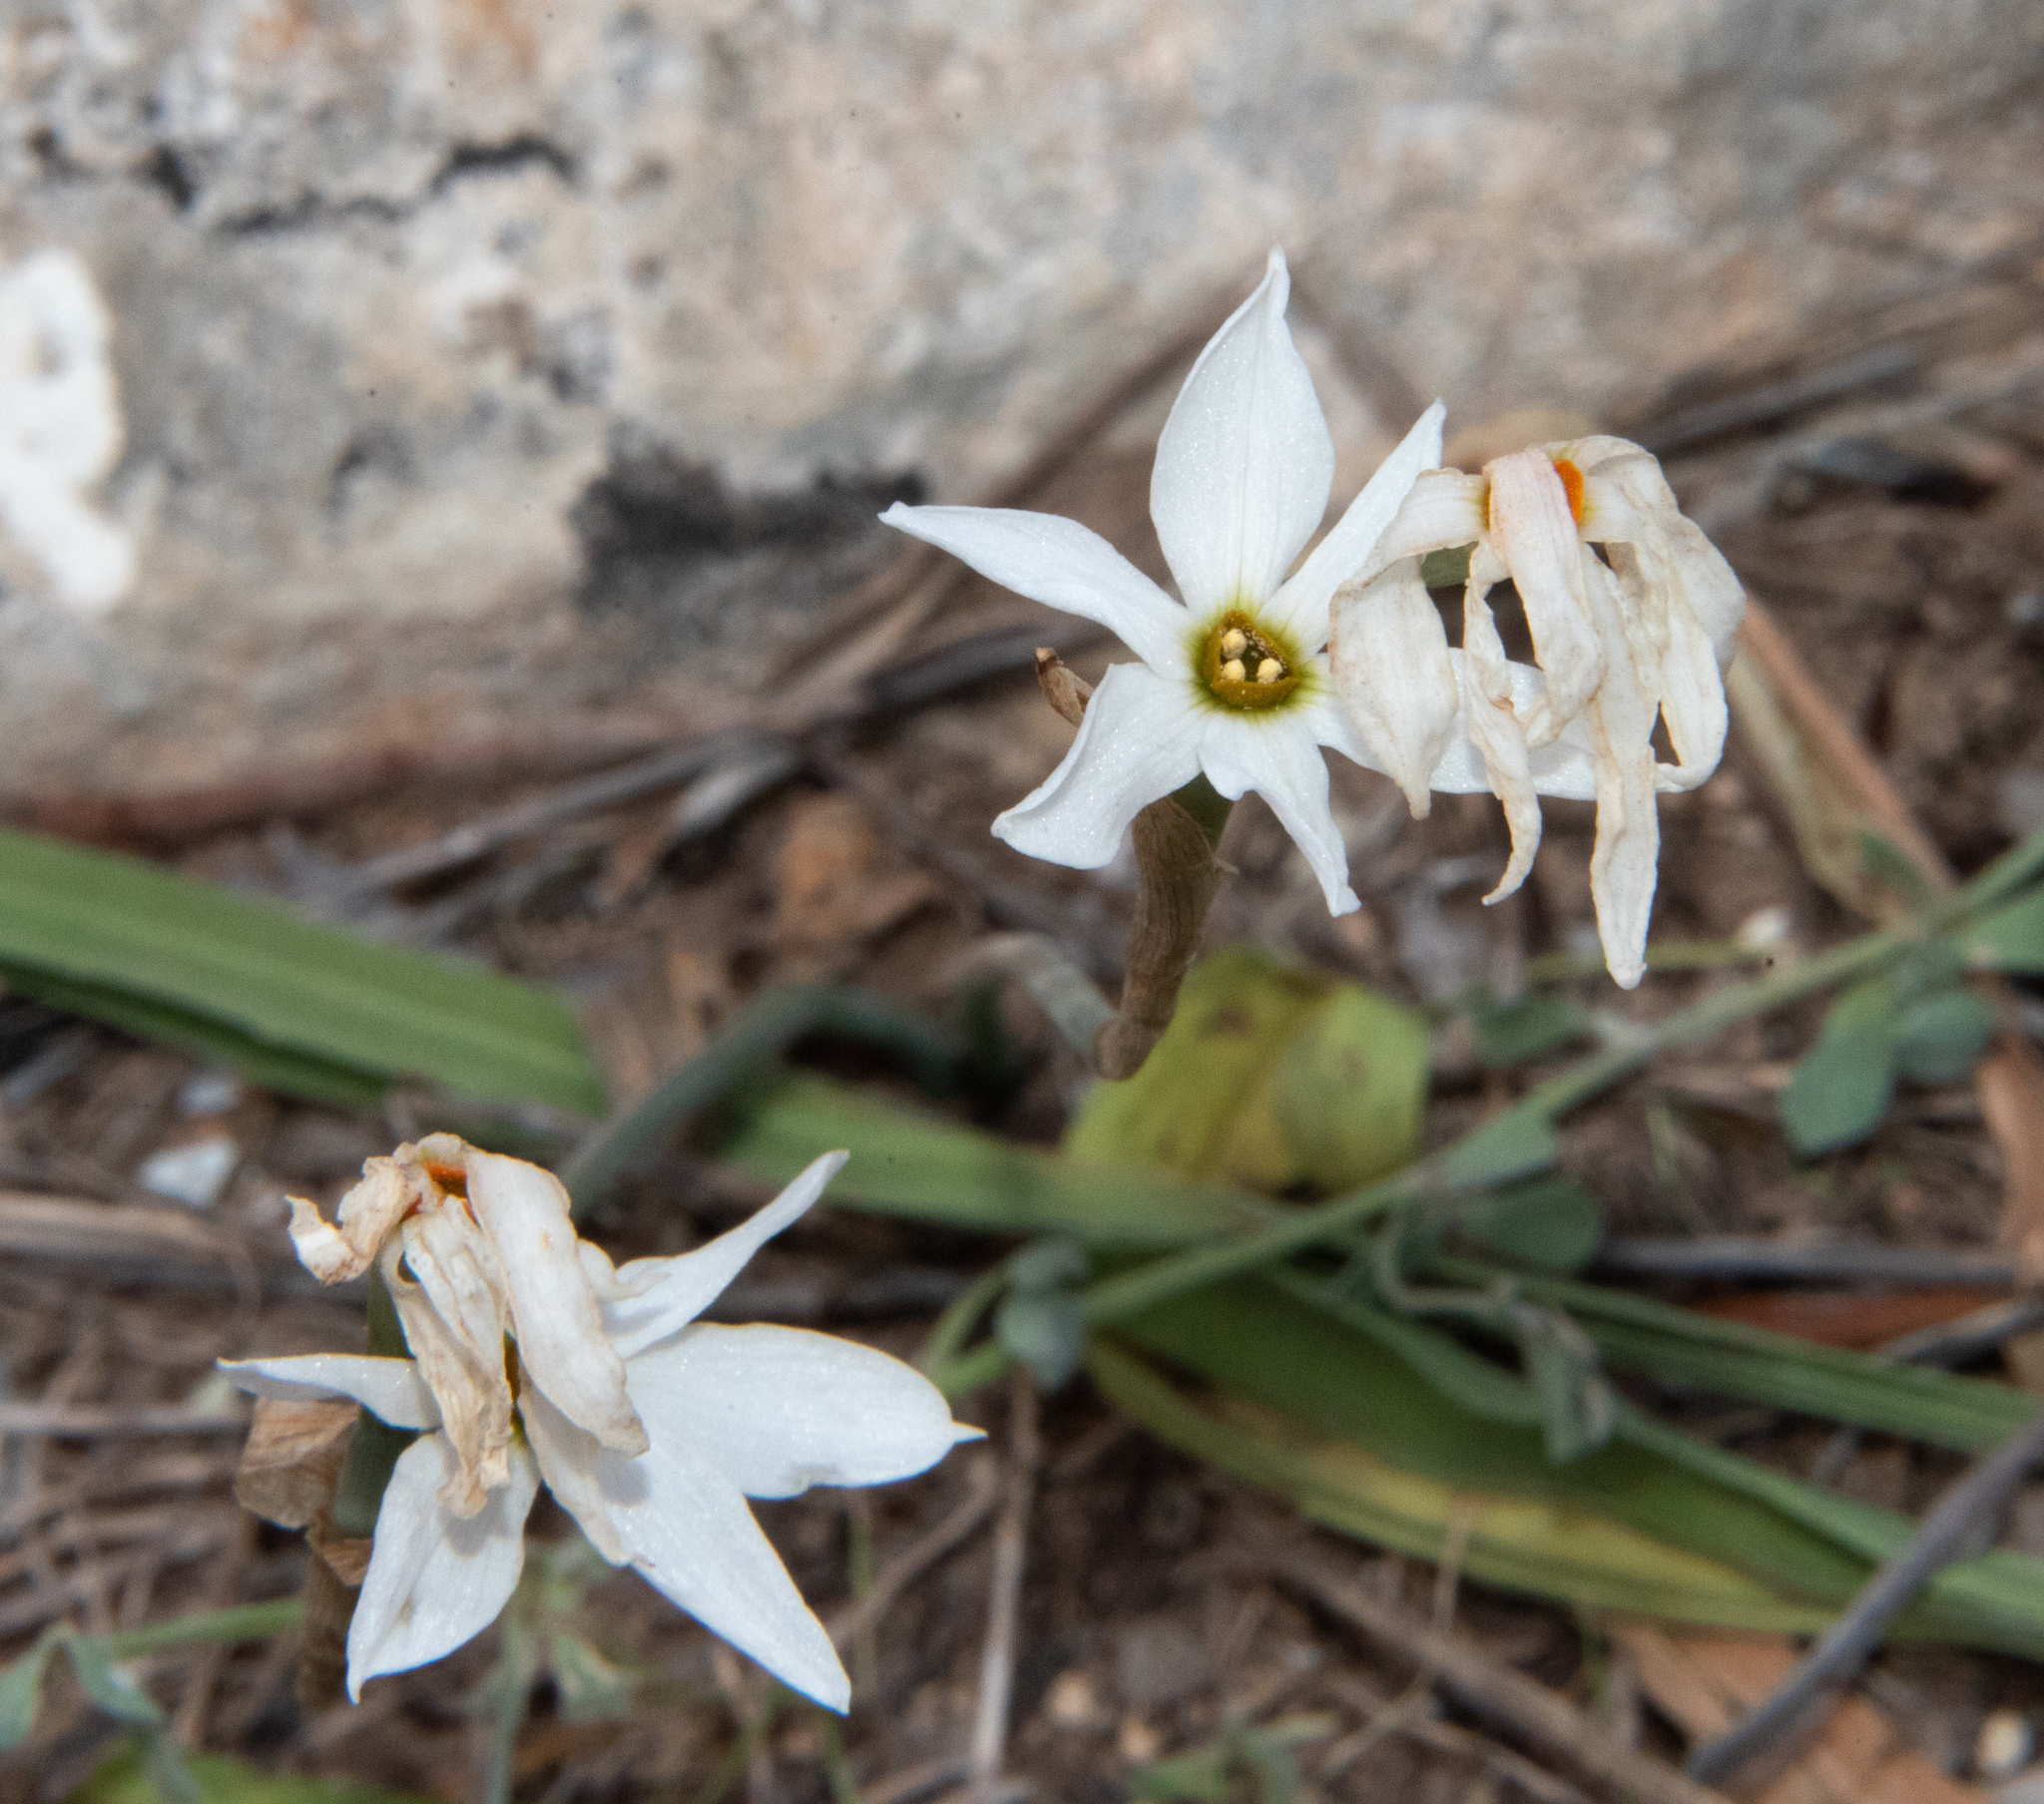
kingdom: Plantae
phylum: Tracheophyta
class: Liliopsida
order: Asparagales
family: Amaryllidaceae
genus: Narcissus
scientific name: Narcissus deficiens
